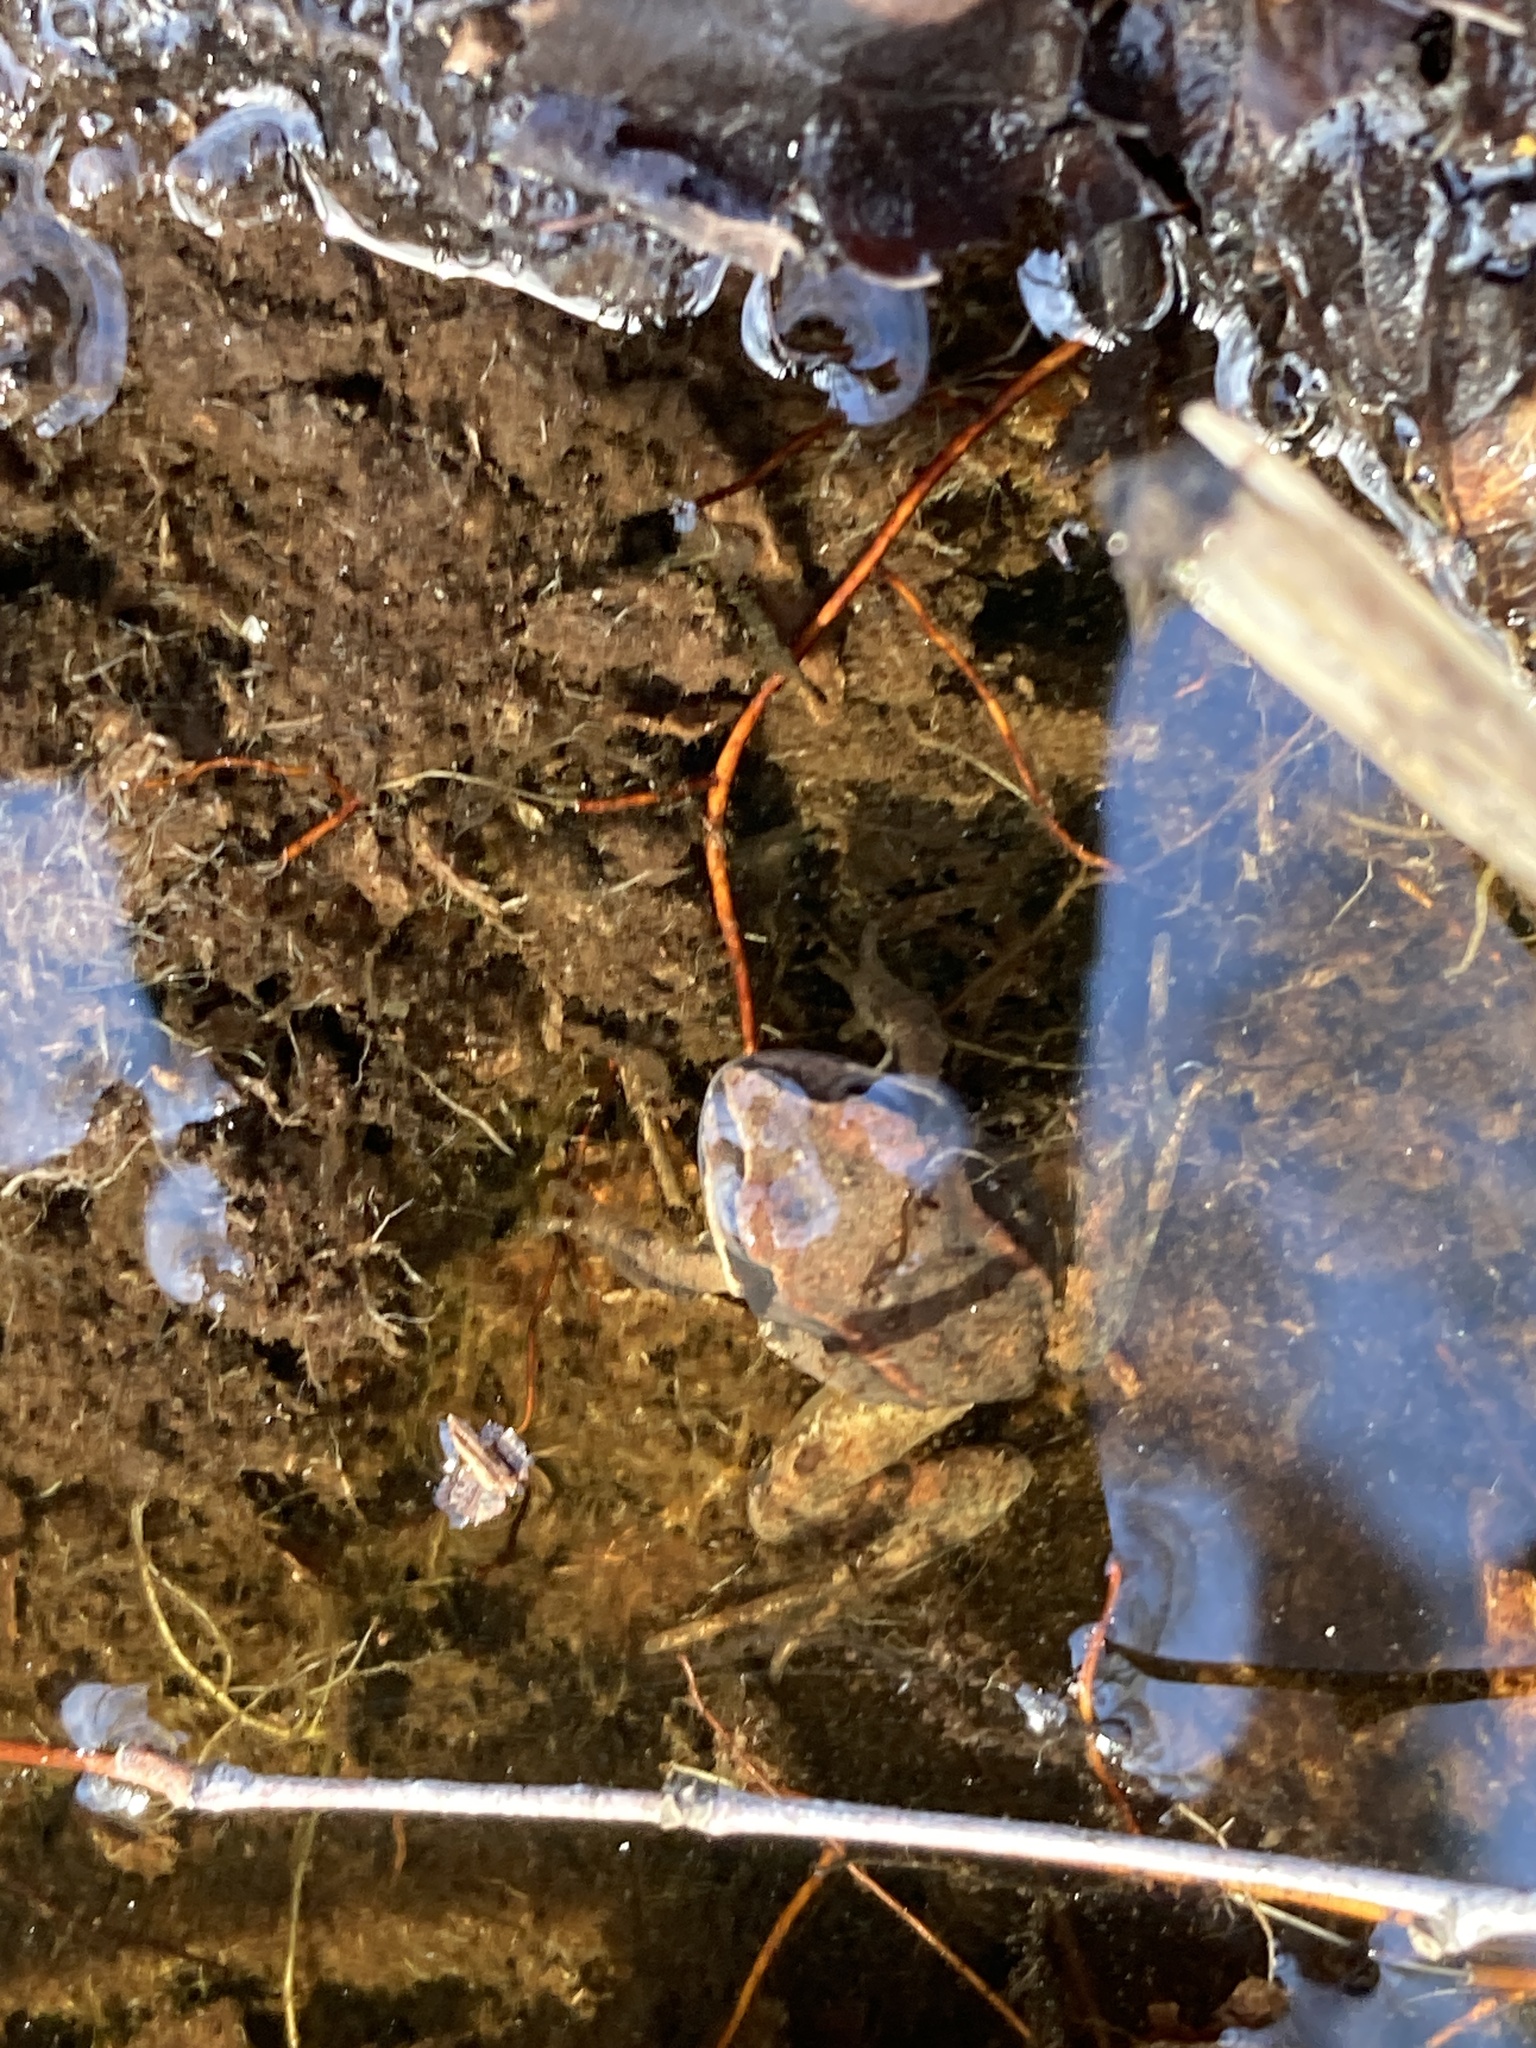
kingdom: Animalia
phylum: Chordata
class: Amphibia
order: Anura
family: Ranidae
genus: Rana
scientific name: Rana temporaria
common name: Common frog
